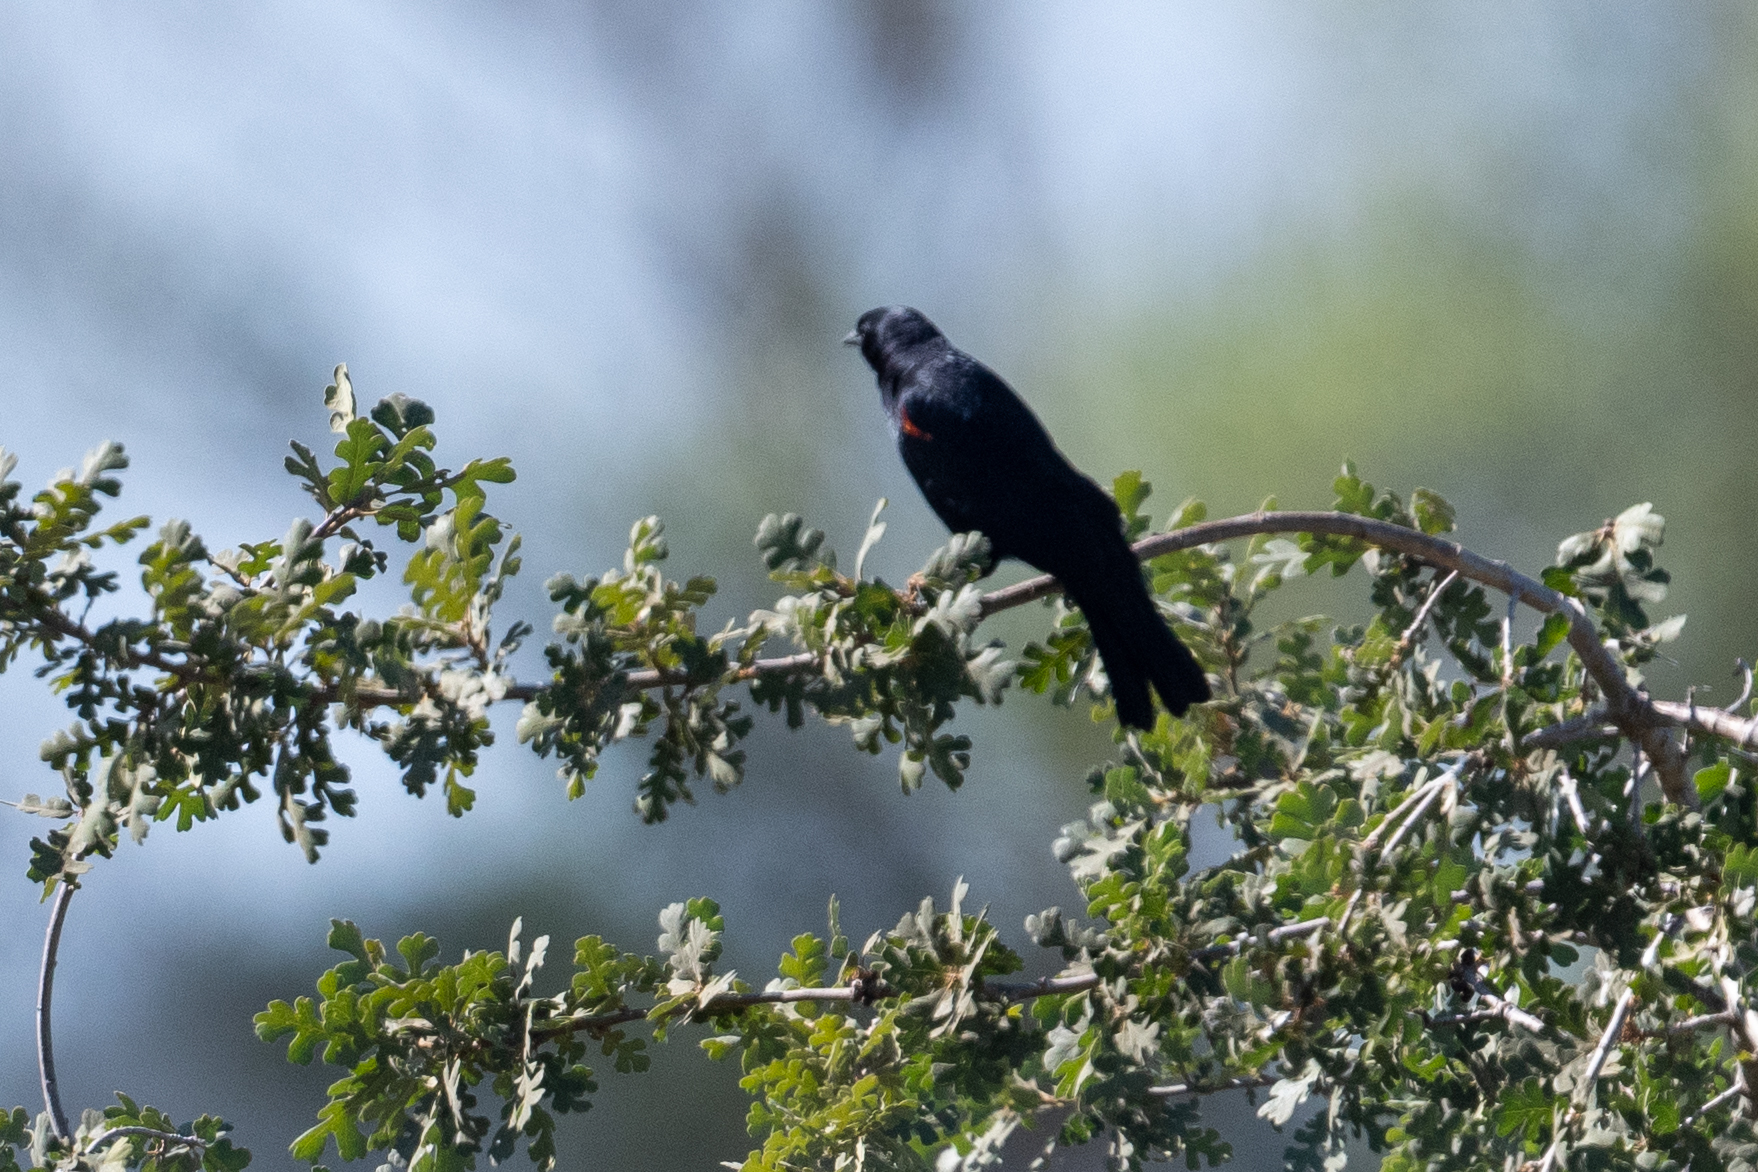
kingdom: Animalia
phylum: Chordata
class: Aves
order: Passeriformes
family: Icteridae
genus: Agelaius
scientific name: Agelaius phoeniceus
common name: Red-winged blackbird
